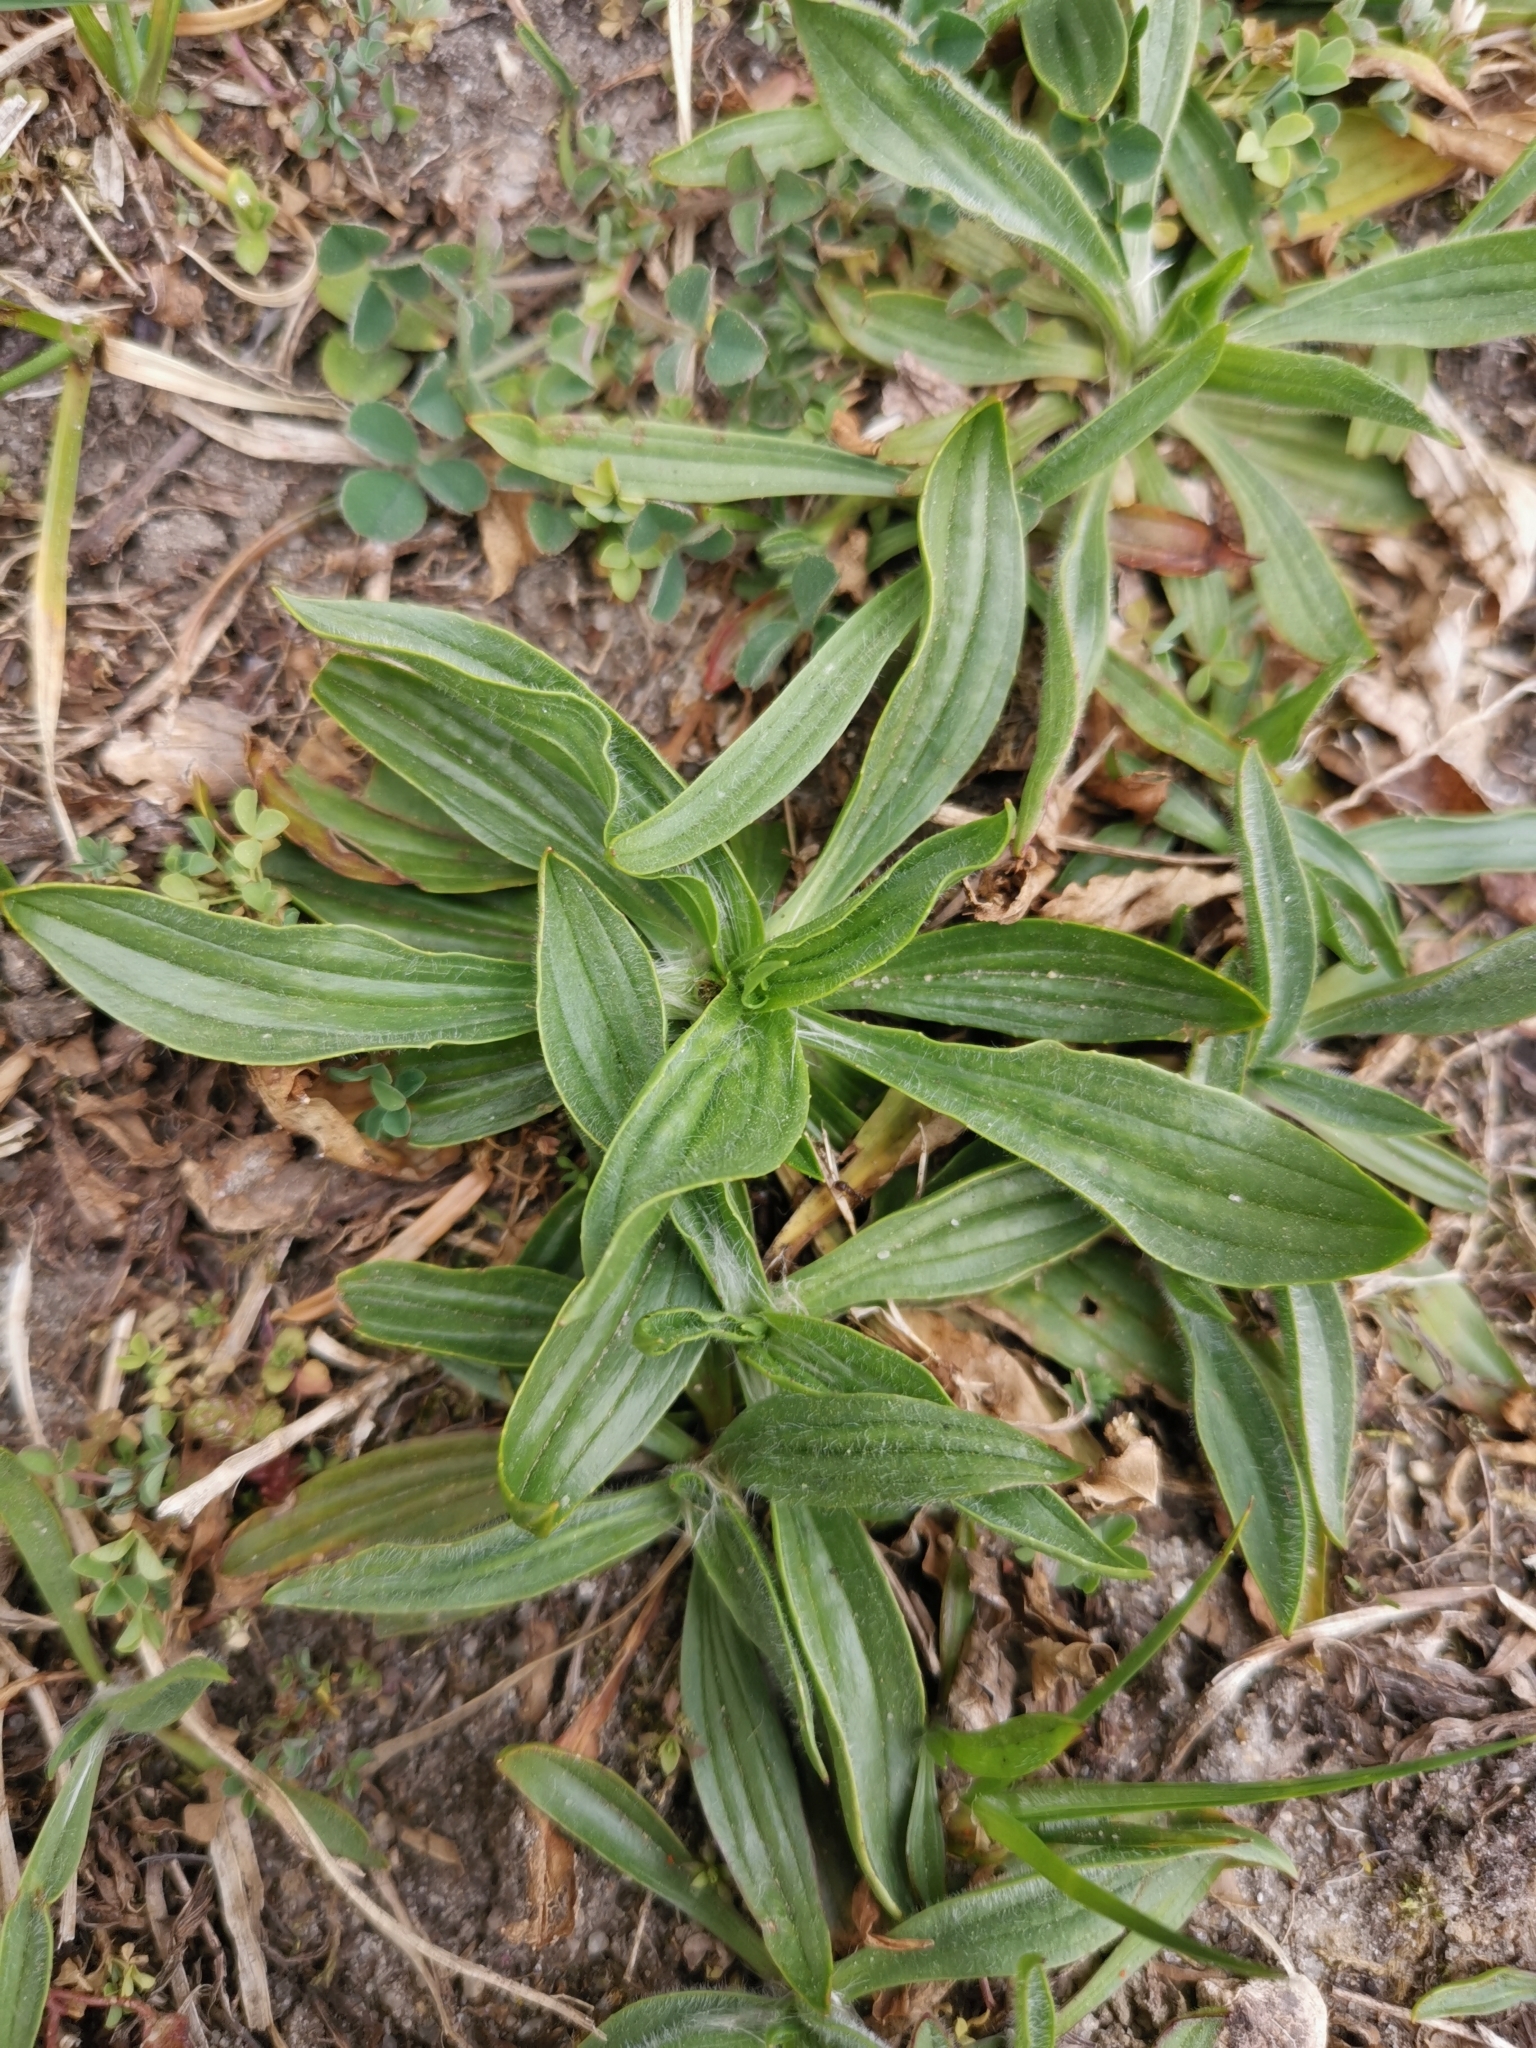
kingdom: Plantae
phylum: Tracheophyta
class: Magnoliopsida
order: Lamiales
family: Plantaginaceae
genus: Plantago
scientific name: Plantago lanceolata
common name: Ribwort plantain
